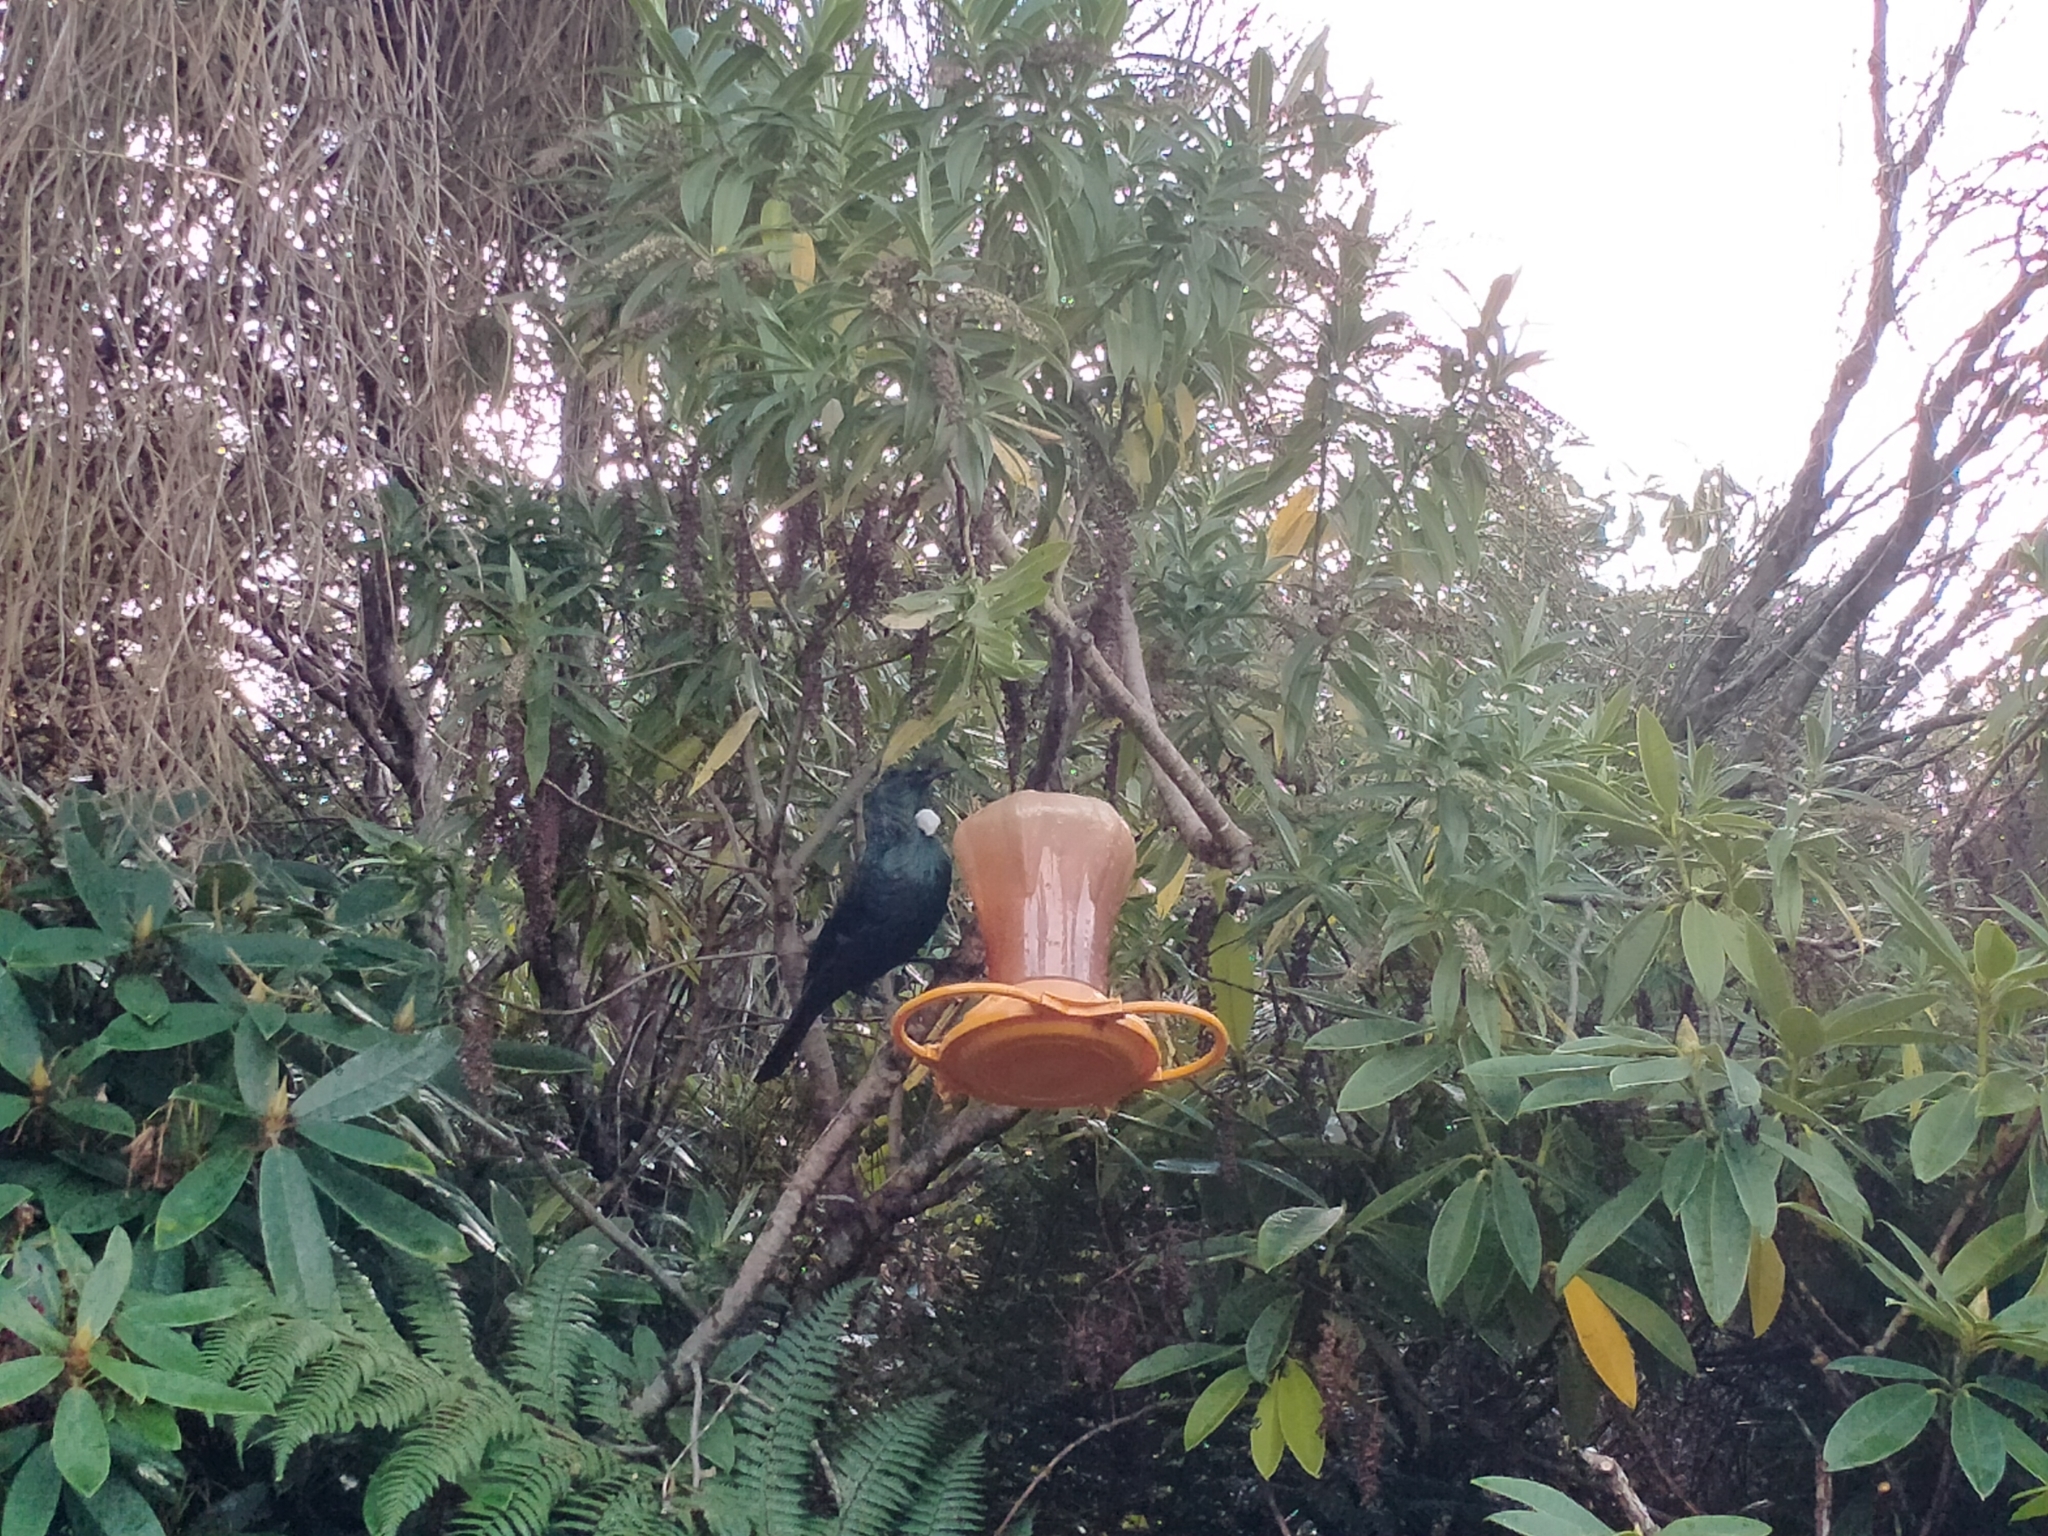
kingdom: Animalia
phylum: Chordata
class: Aves
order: Passeriformes
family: Meliphagidae
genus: Prosthemadera
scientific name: Prosthemadera novaeseelandiae
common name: Tui
